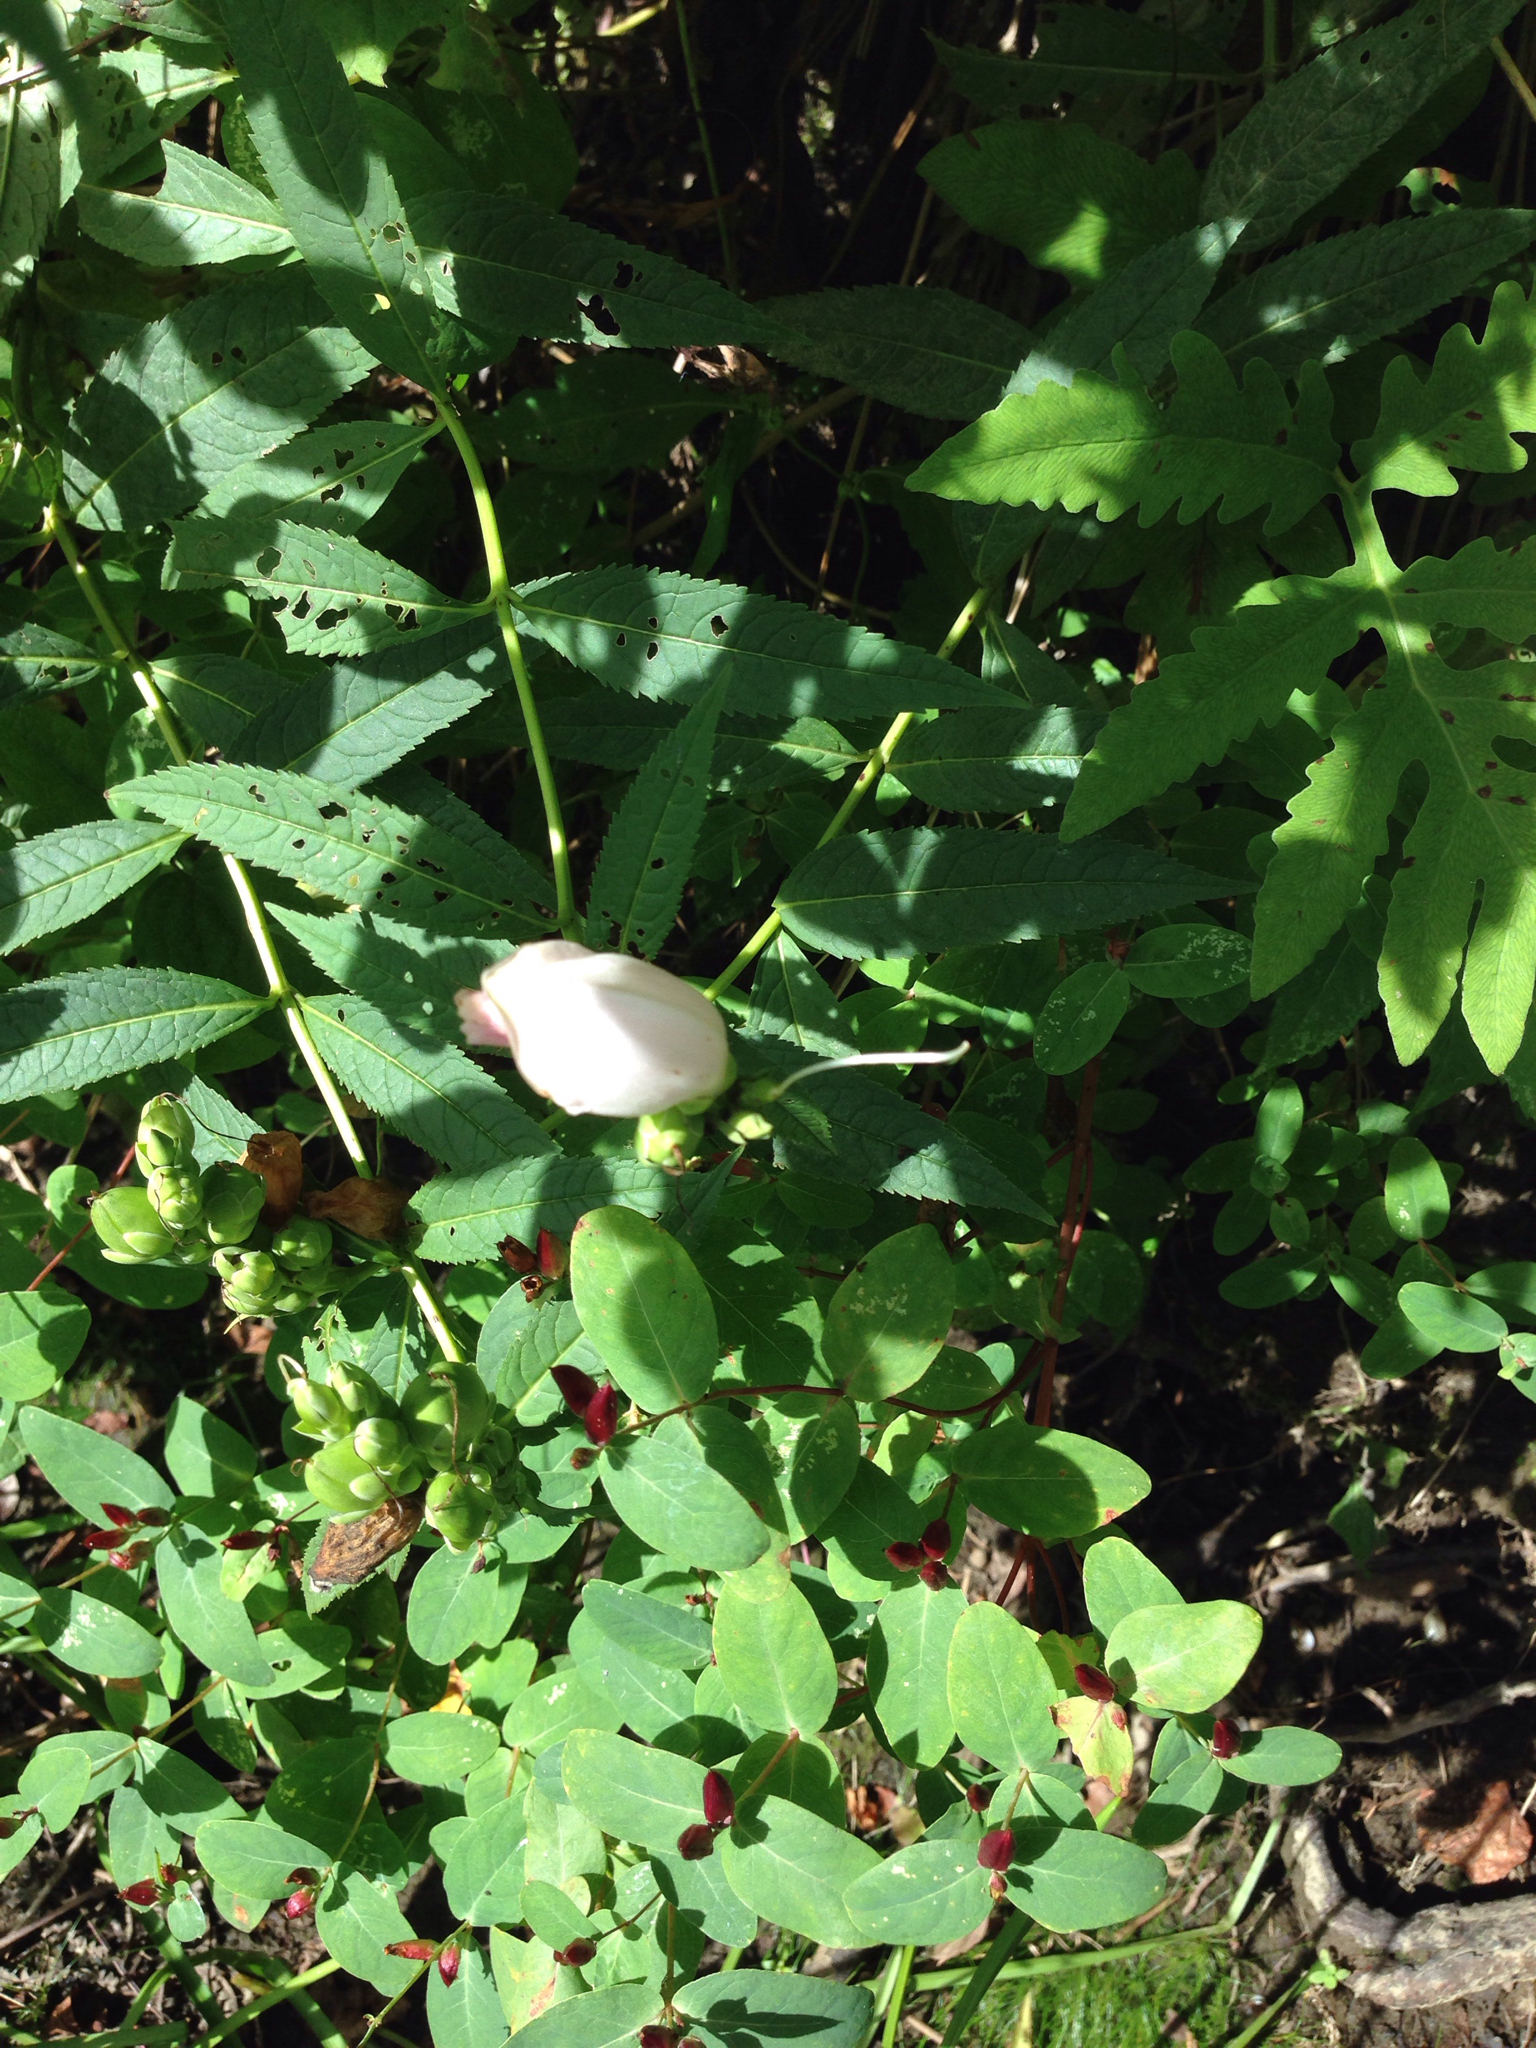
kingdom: Plantae
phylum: Tracheophyta
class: Magnoliopsida
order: Lamiales
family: Plantaginaceae
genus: Chelone
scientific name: Chelone glabra
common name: Snakehead
